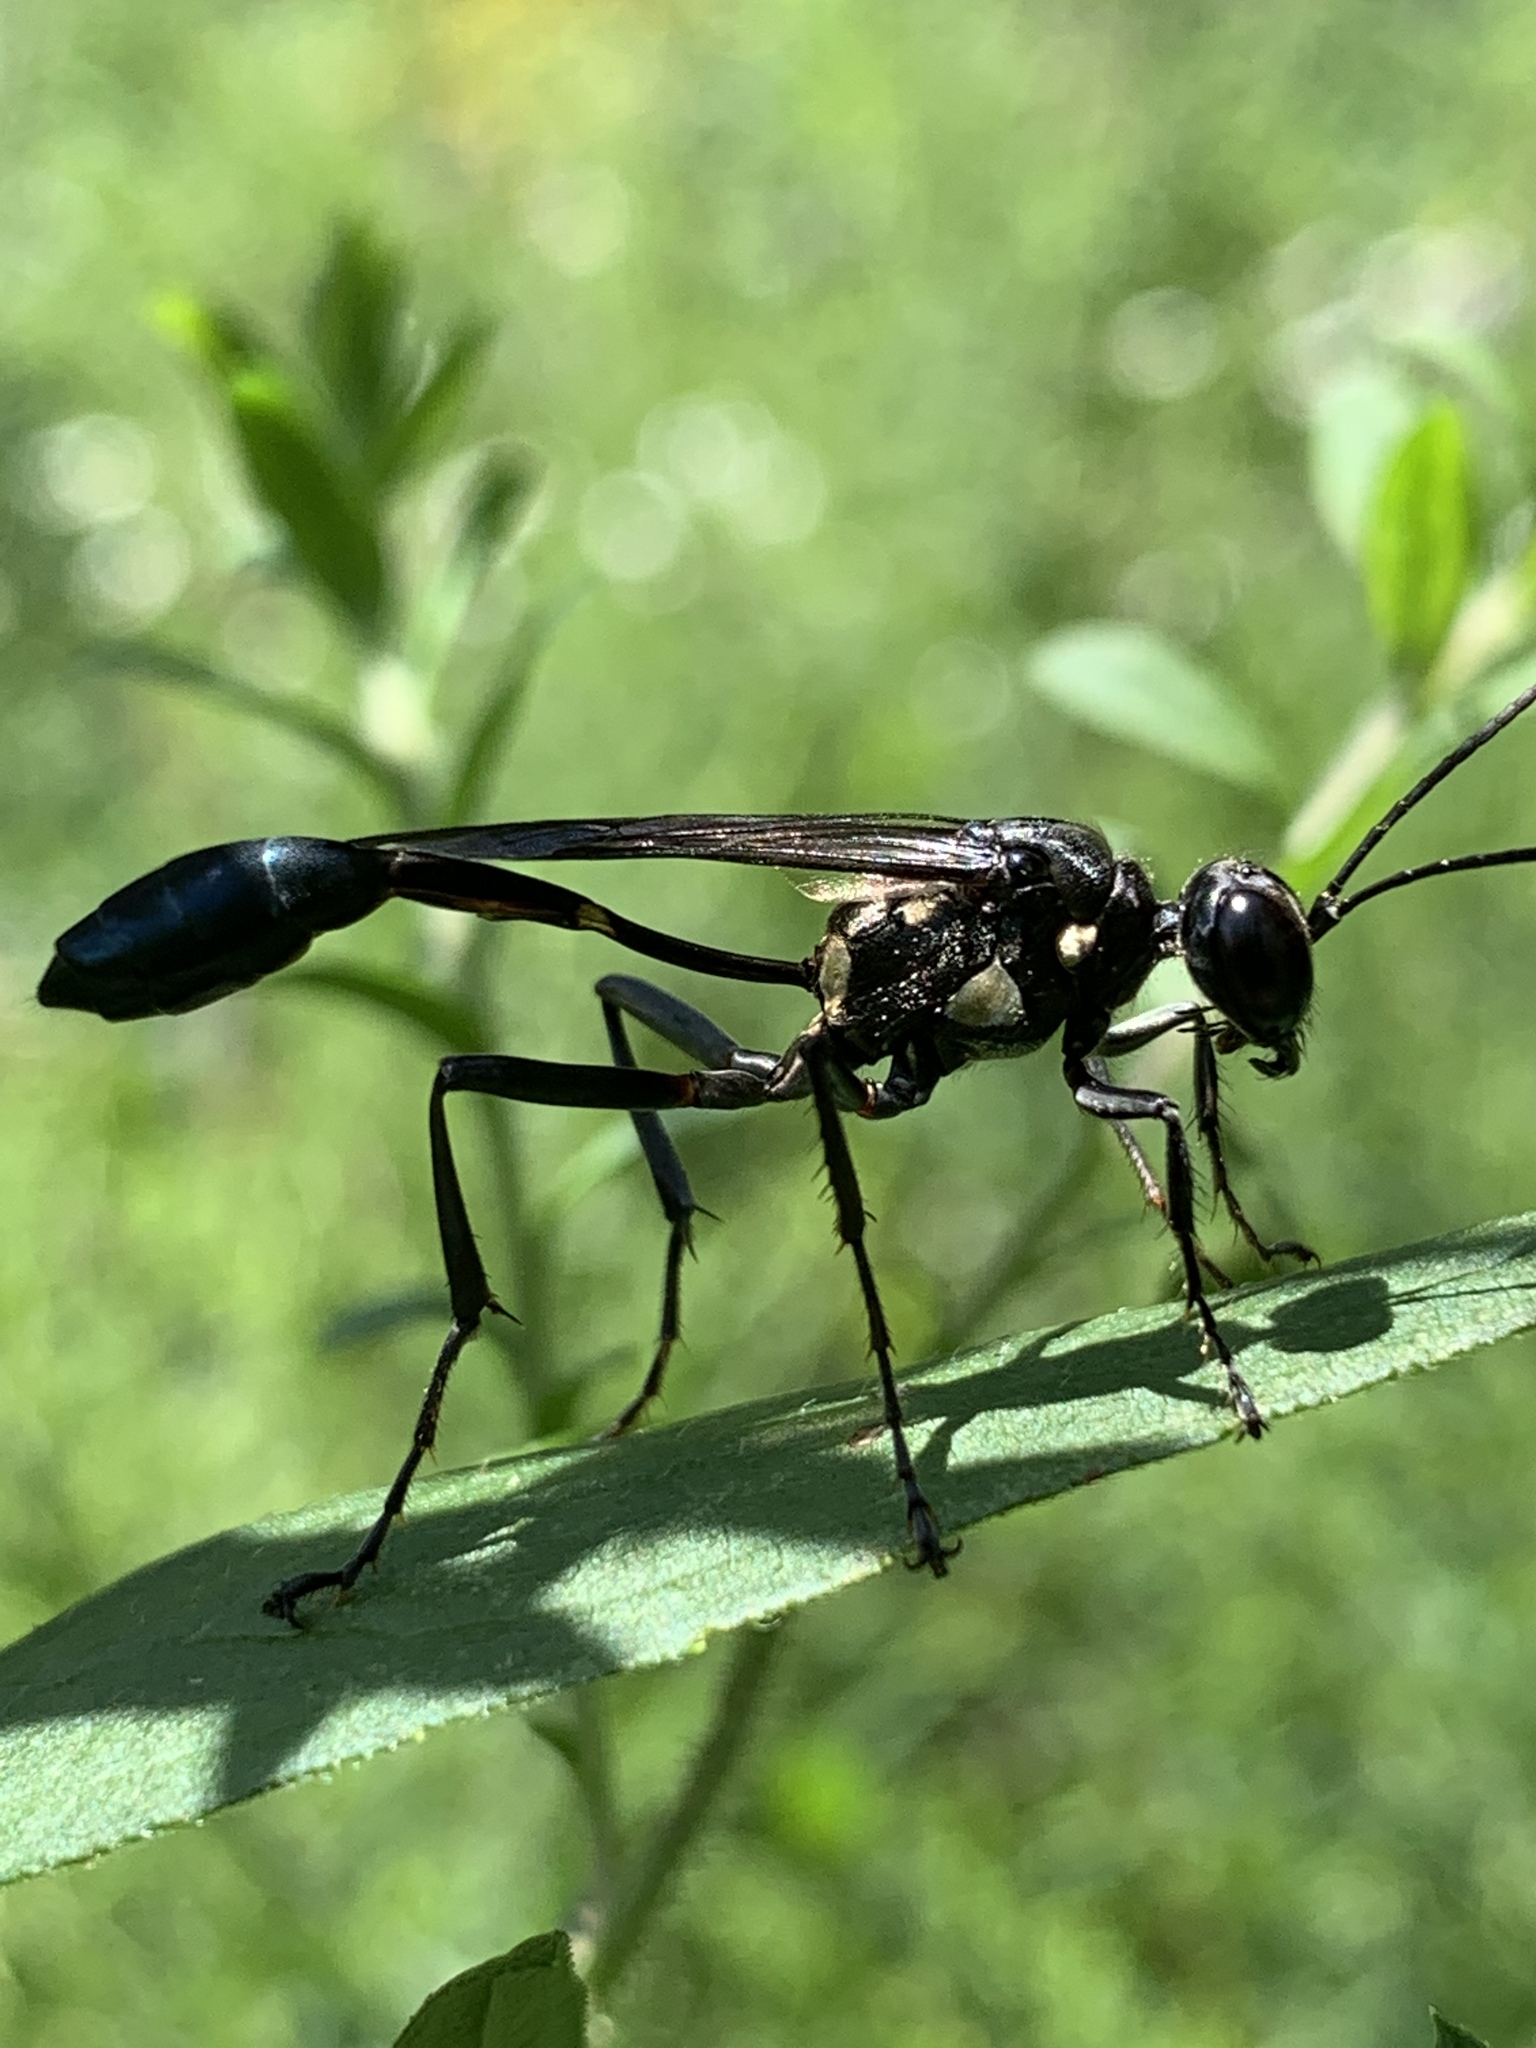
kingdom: Animalia
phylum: Arthropoda
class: Insecta
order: Hymenoptera
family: Sphecidae
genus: Eremnophila
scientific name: Eremnophila aureonotata
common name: Gold-marked thread-waisted wasp
